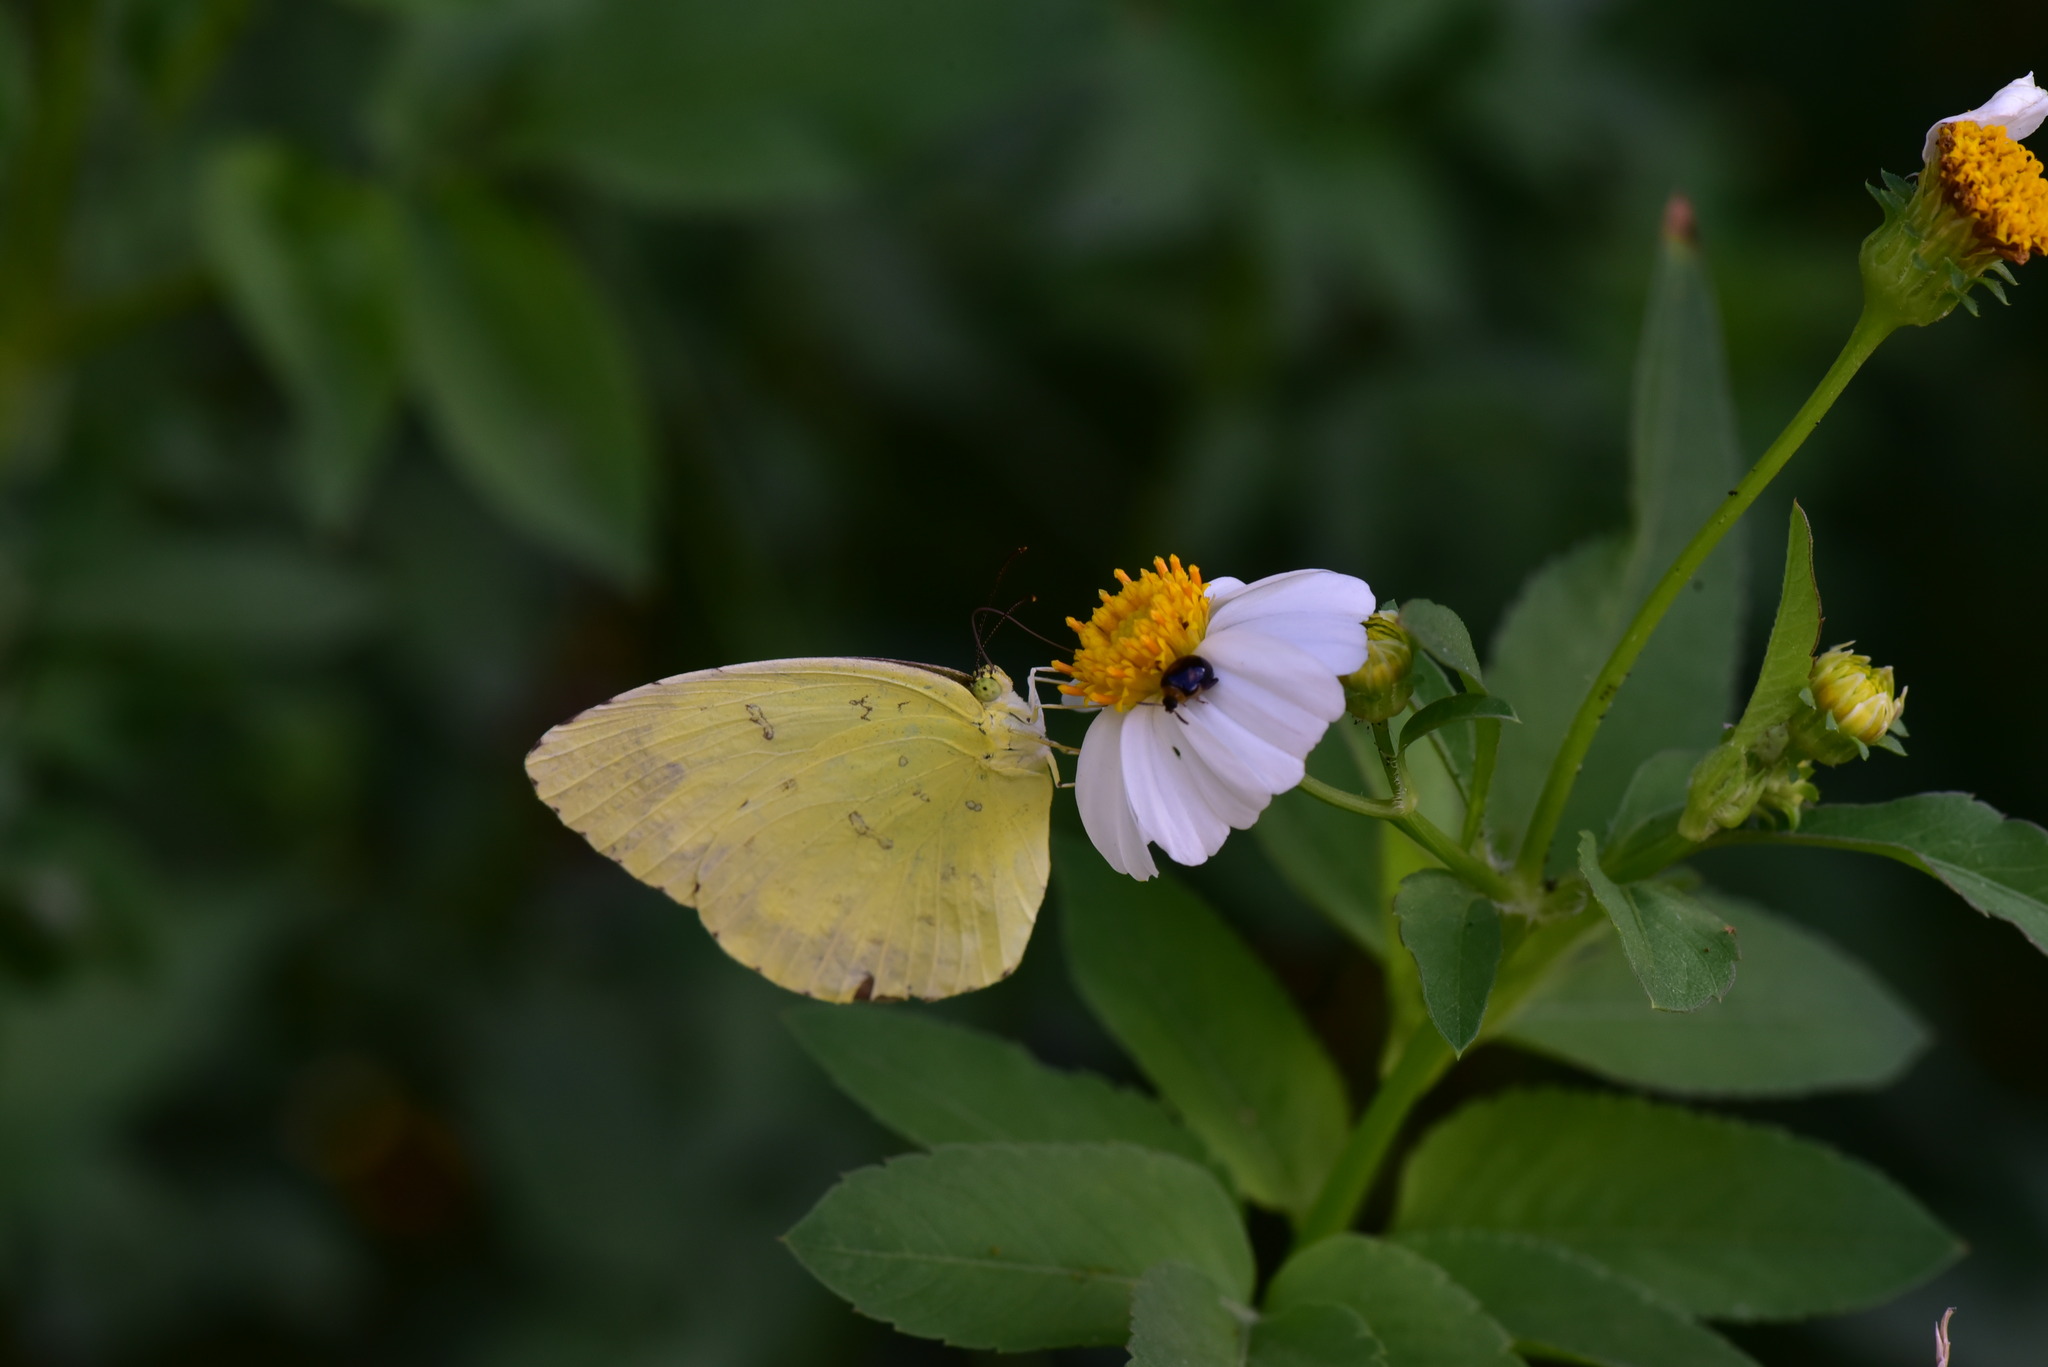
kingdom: Animalia
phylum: Arthropoda
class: Insecta
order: Lepidoptera
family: Pieridae
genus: Eurema
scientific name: Eurema blanda
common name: Three-spot grass yellow
